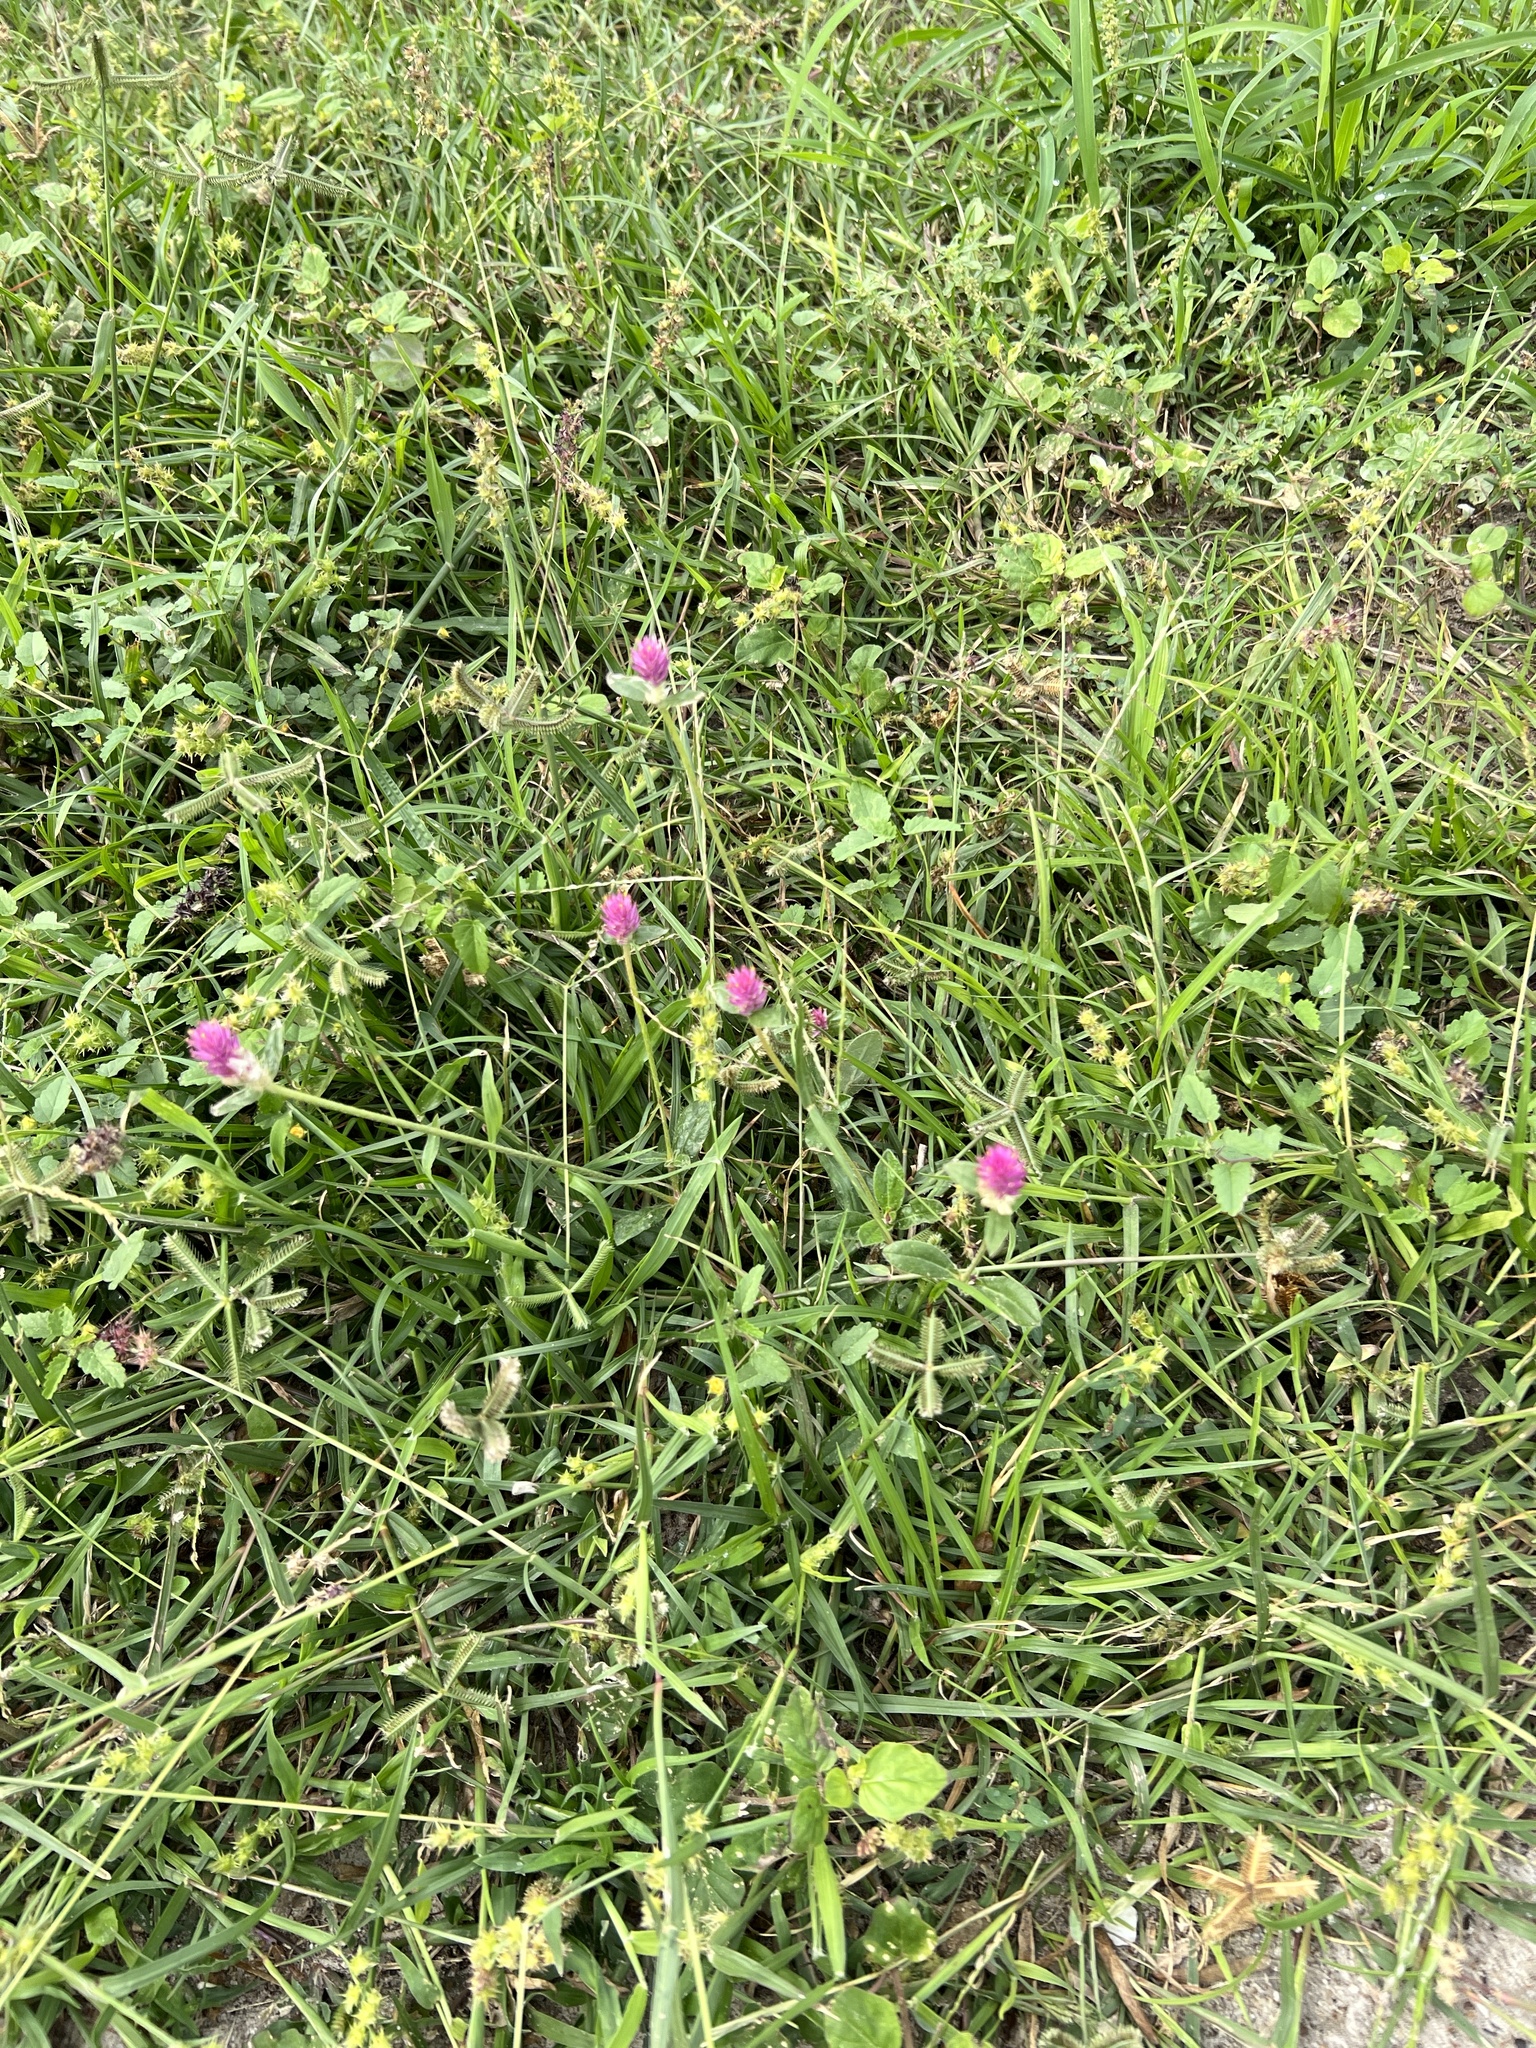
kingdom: Plantae
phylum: Tracheophyta
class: Magnoliopsida
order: Caryophyllales
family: Amaranthaceae
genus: Gomphrena
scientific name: Gomphrena globosa
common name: Common globe amaranth
